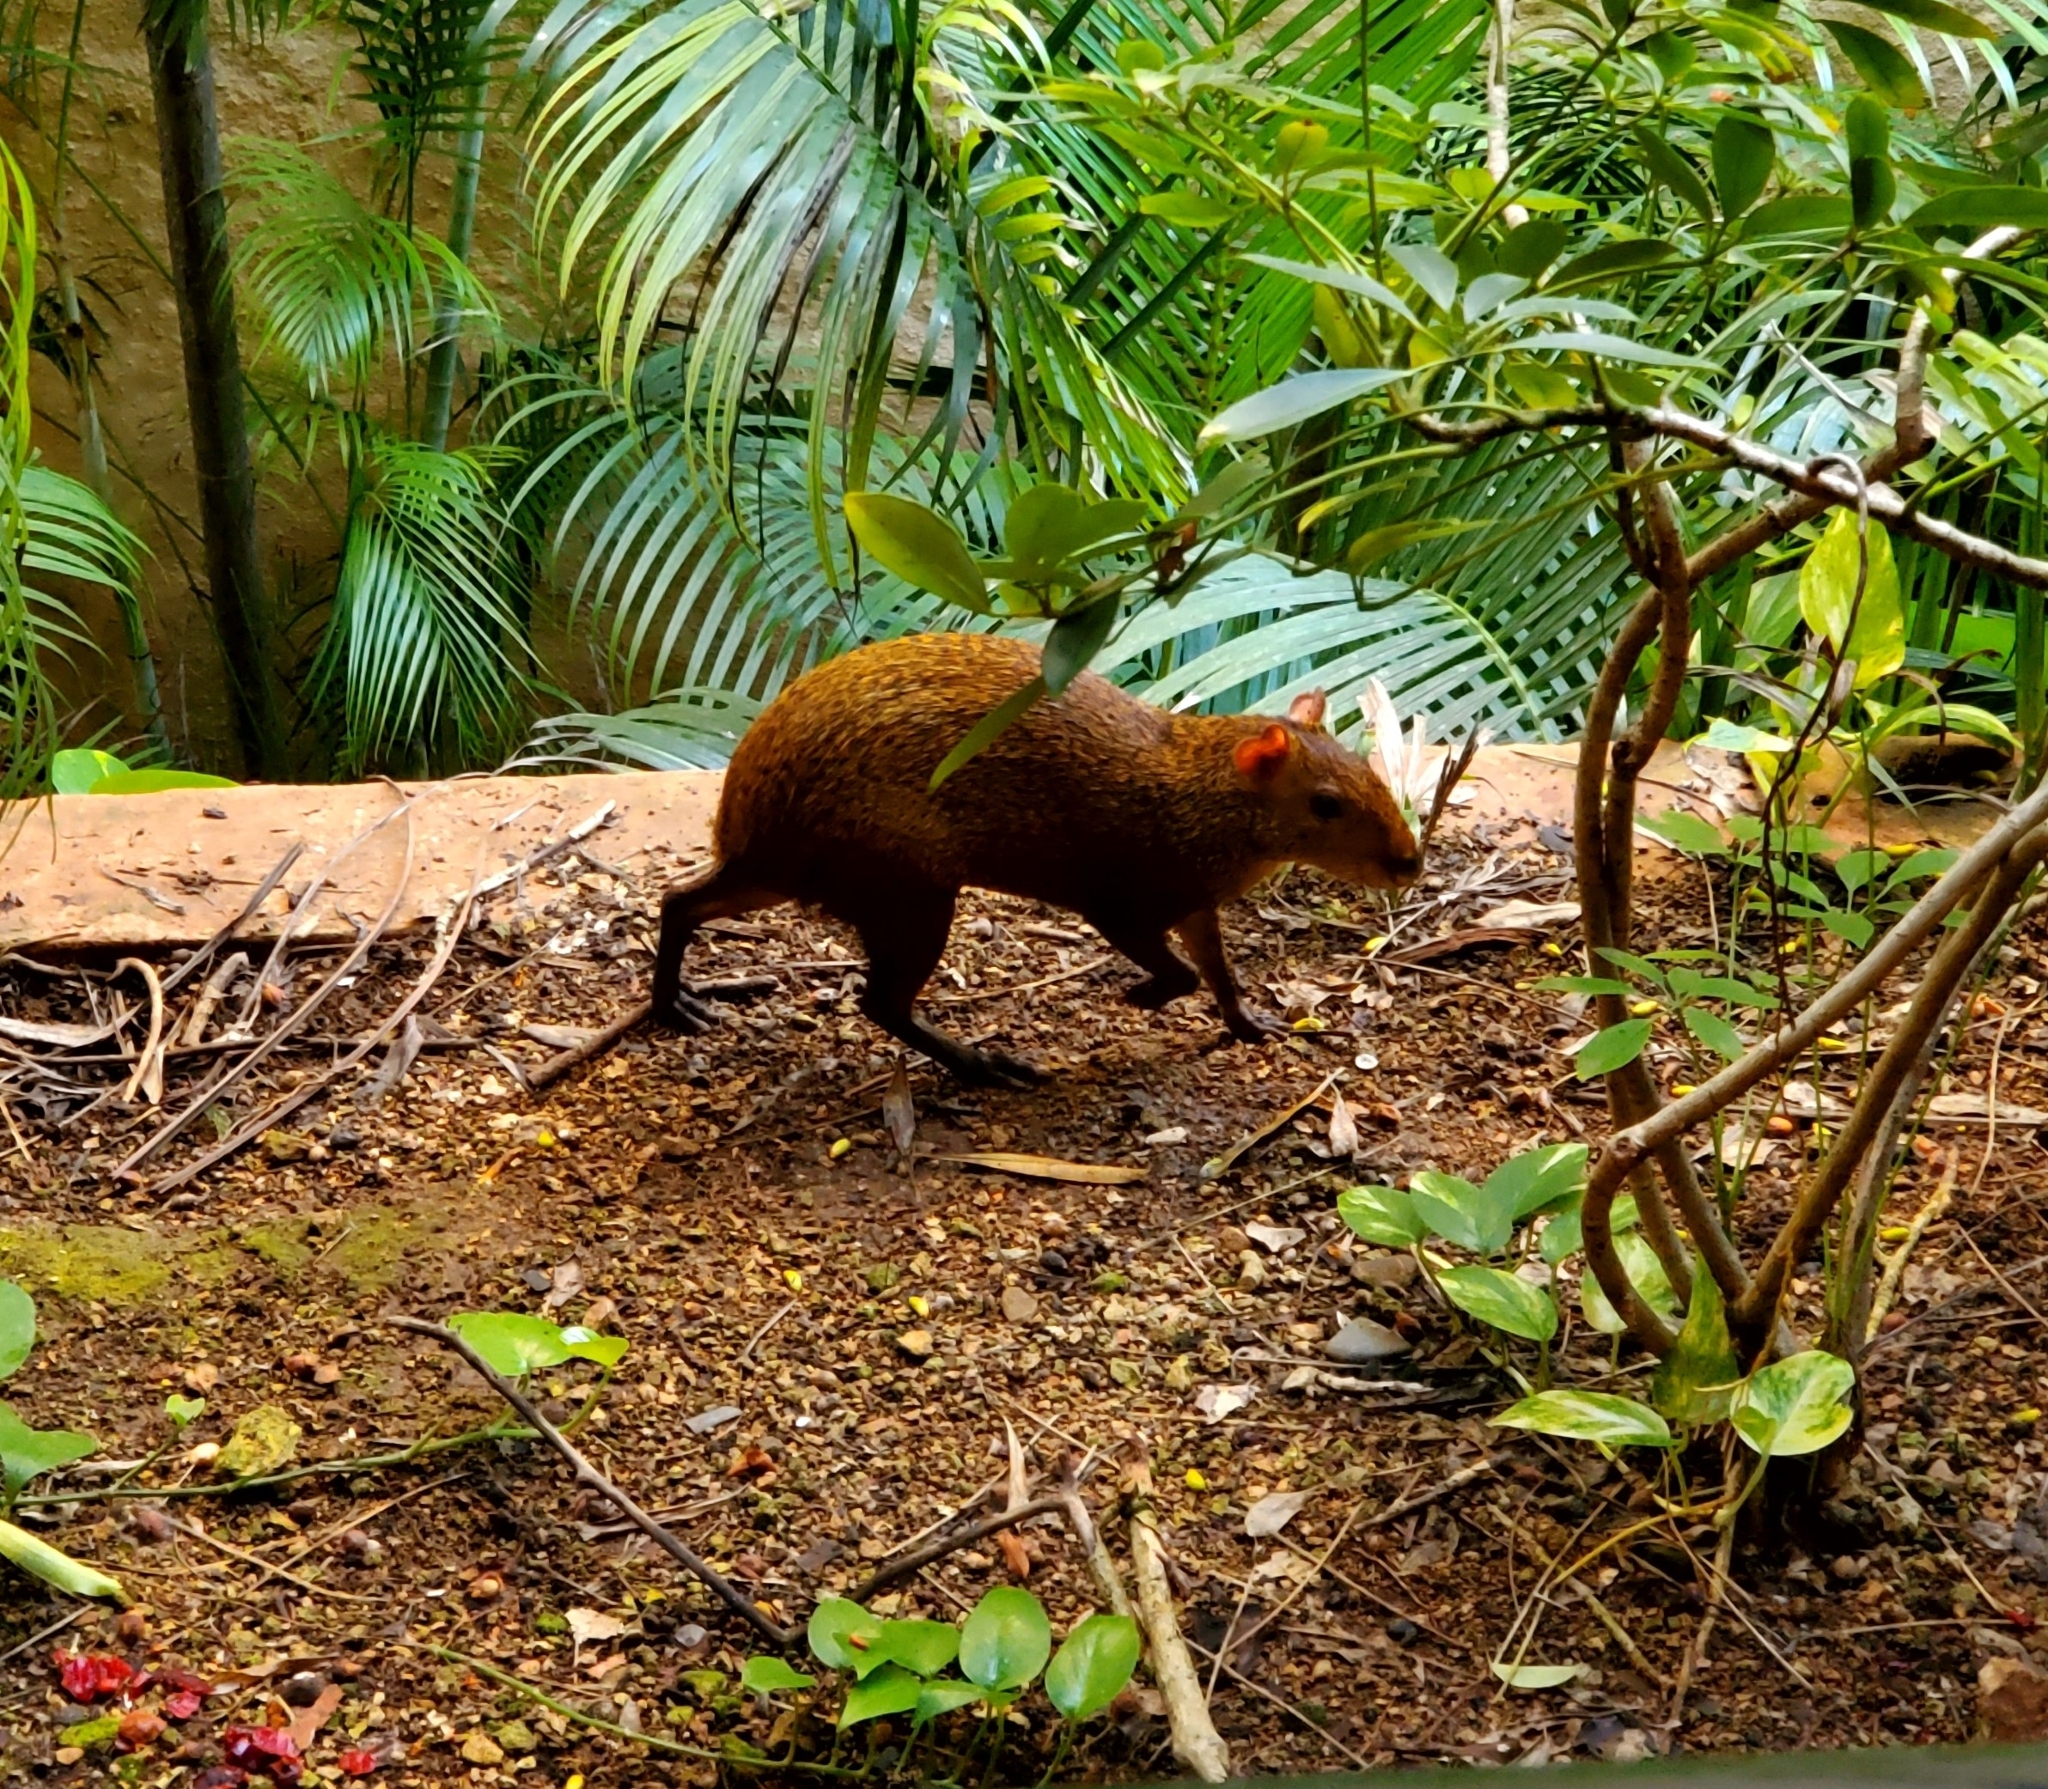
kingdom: Animalia
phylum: Chordata
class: Mammalia
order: Rodentia
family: Dasyproctidae
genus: Dasyprocta
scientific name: Dasyprocta punctata
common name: Central american agouti
